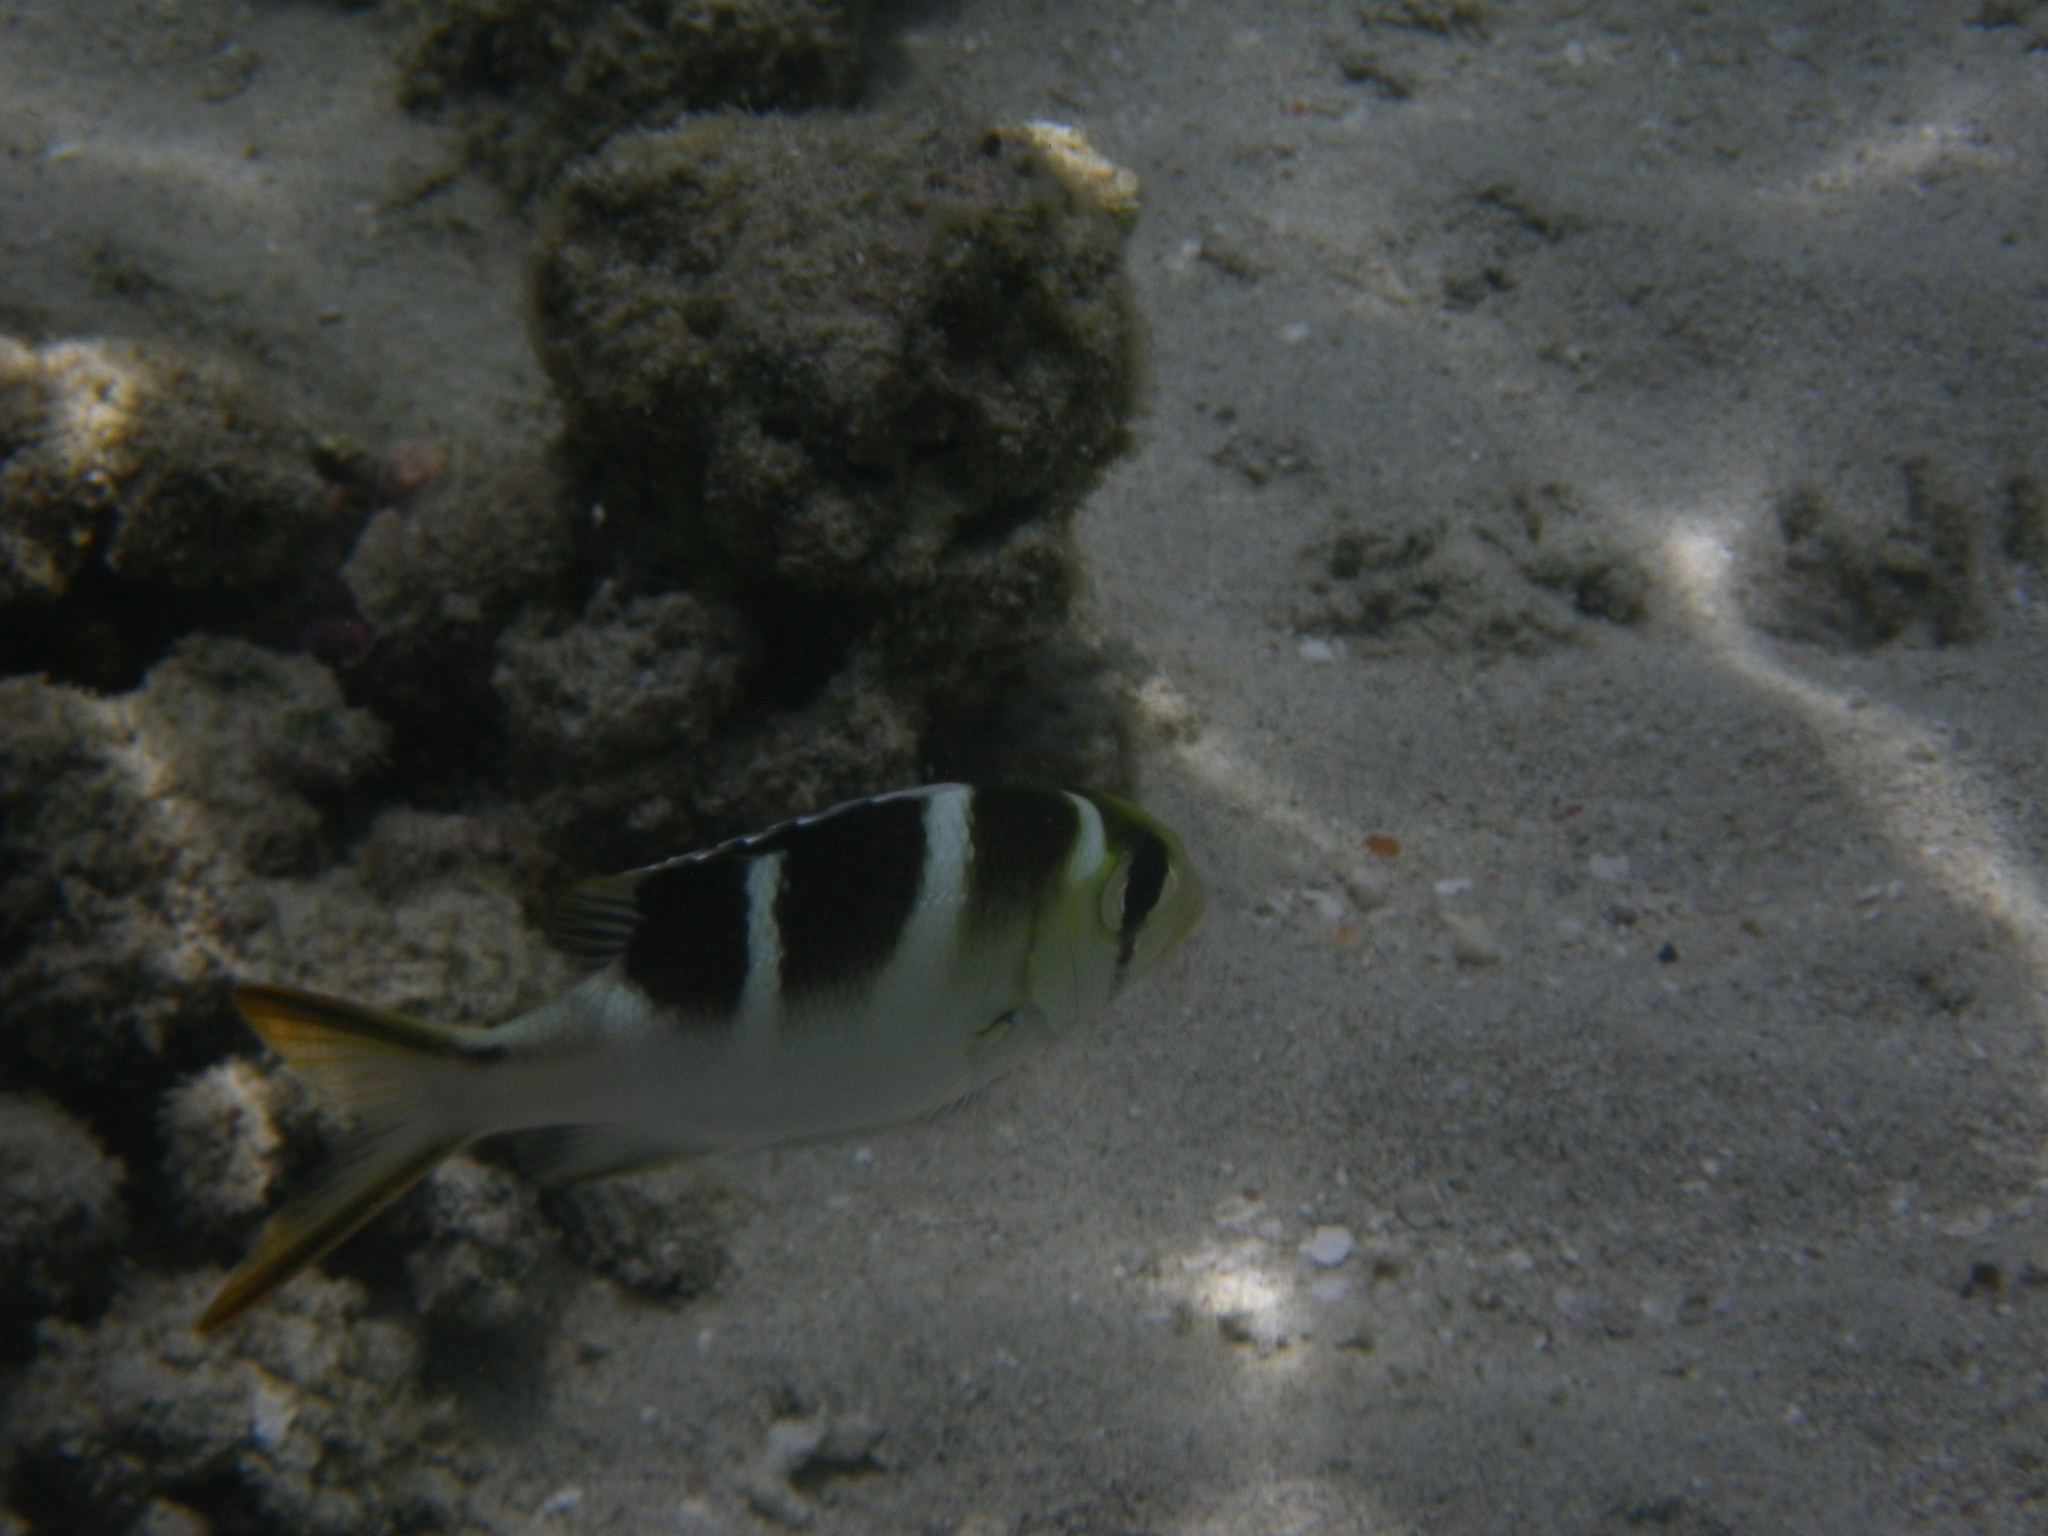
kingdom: Animalia
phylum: Chordata
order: Perciformes
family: Lethrinidae
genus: Monotaxis
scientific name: Monotaxis grandoculis
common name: Bigeye emperor
